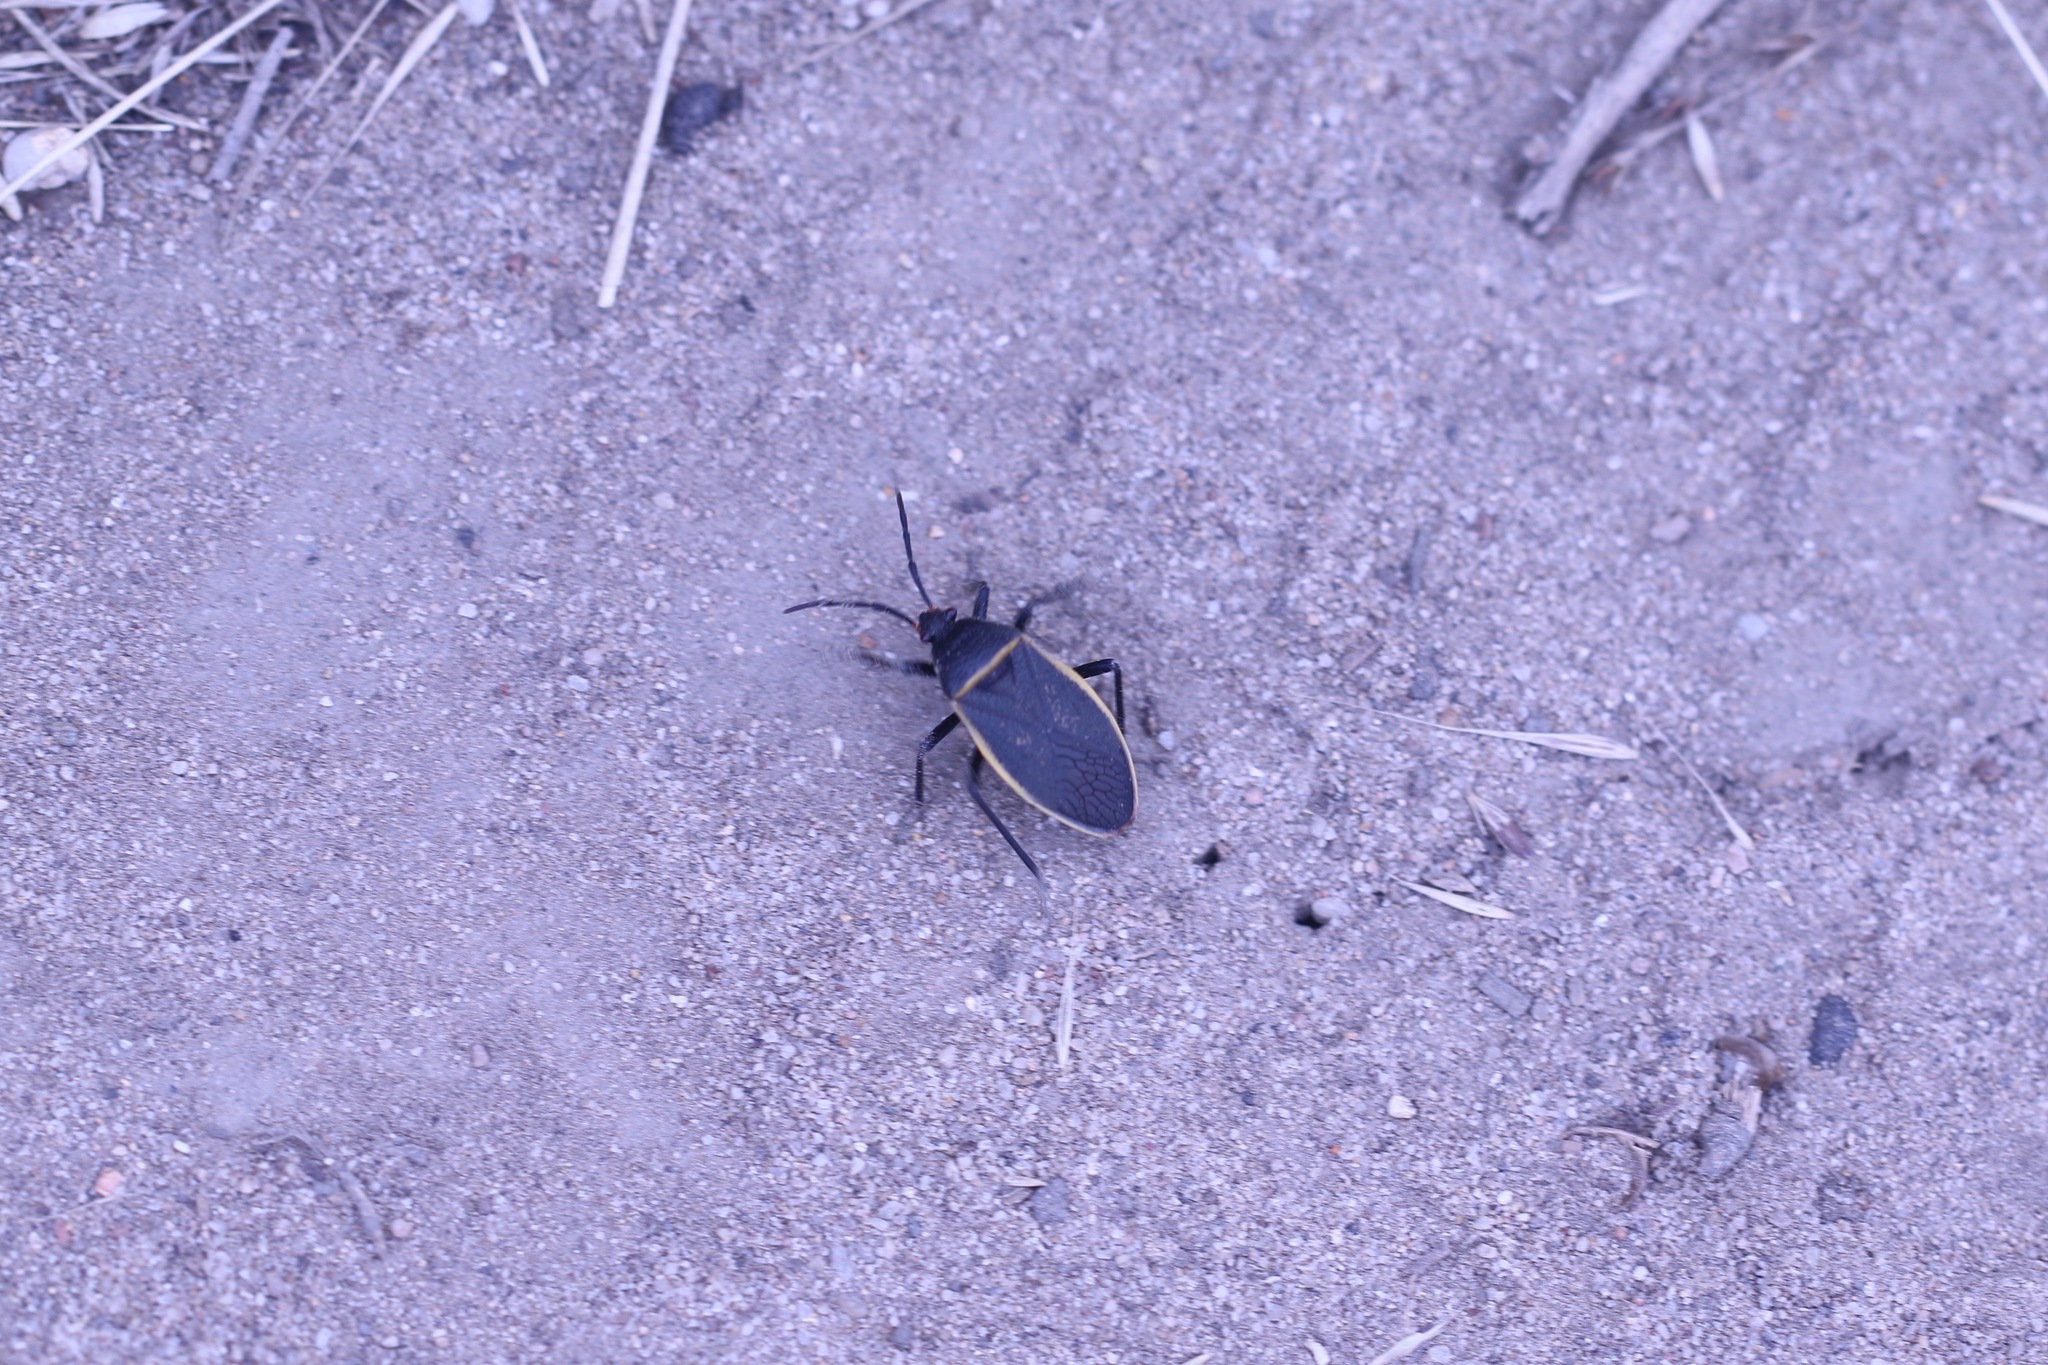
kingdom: Animalia
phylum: Arthropoda
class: Insecta
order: Hemiptera
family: Largidae
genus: Largus
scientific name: Largus californicus
